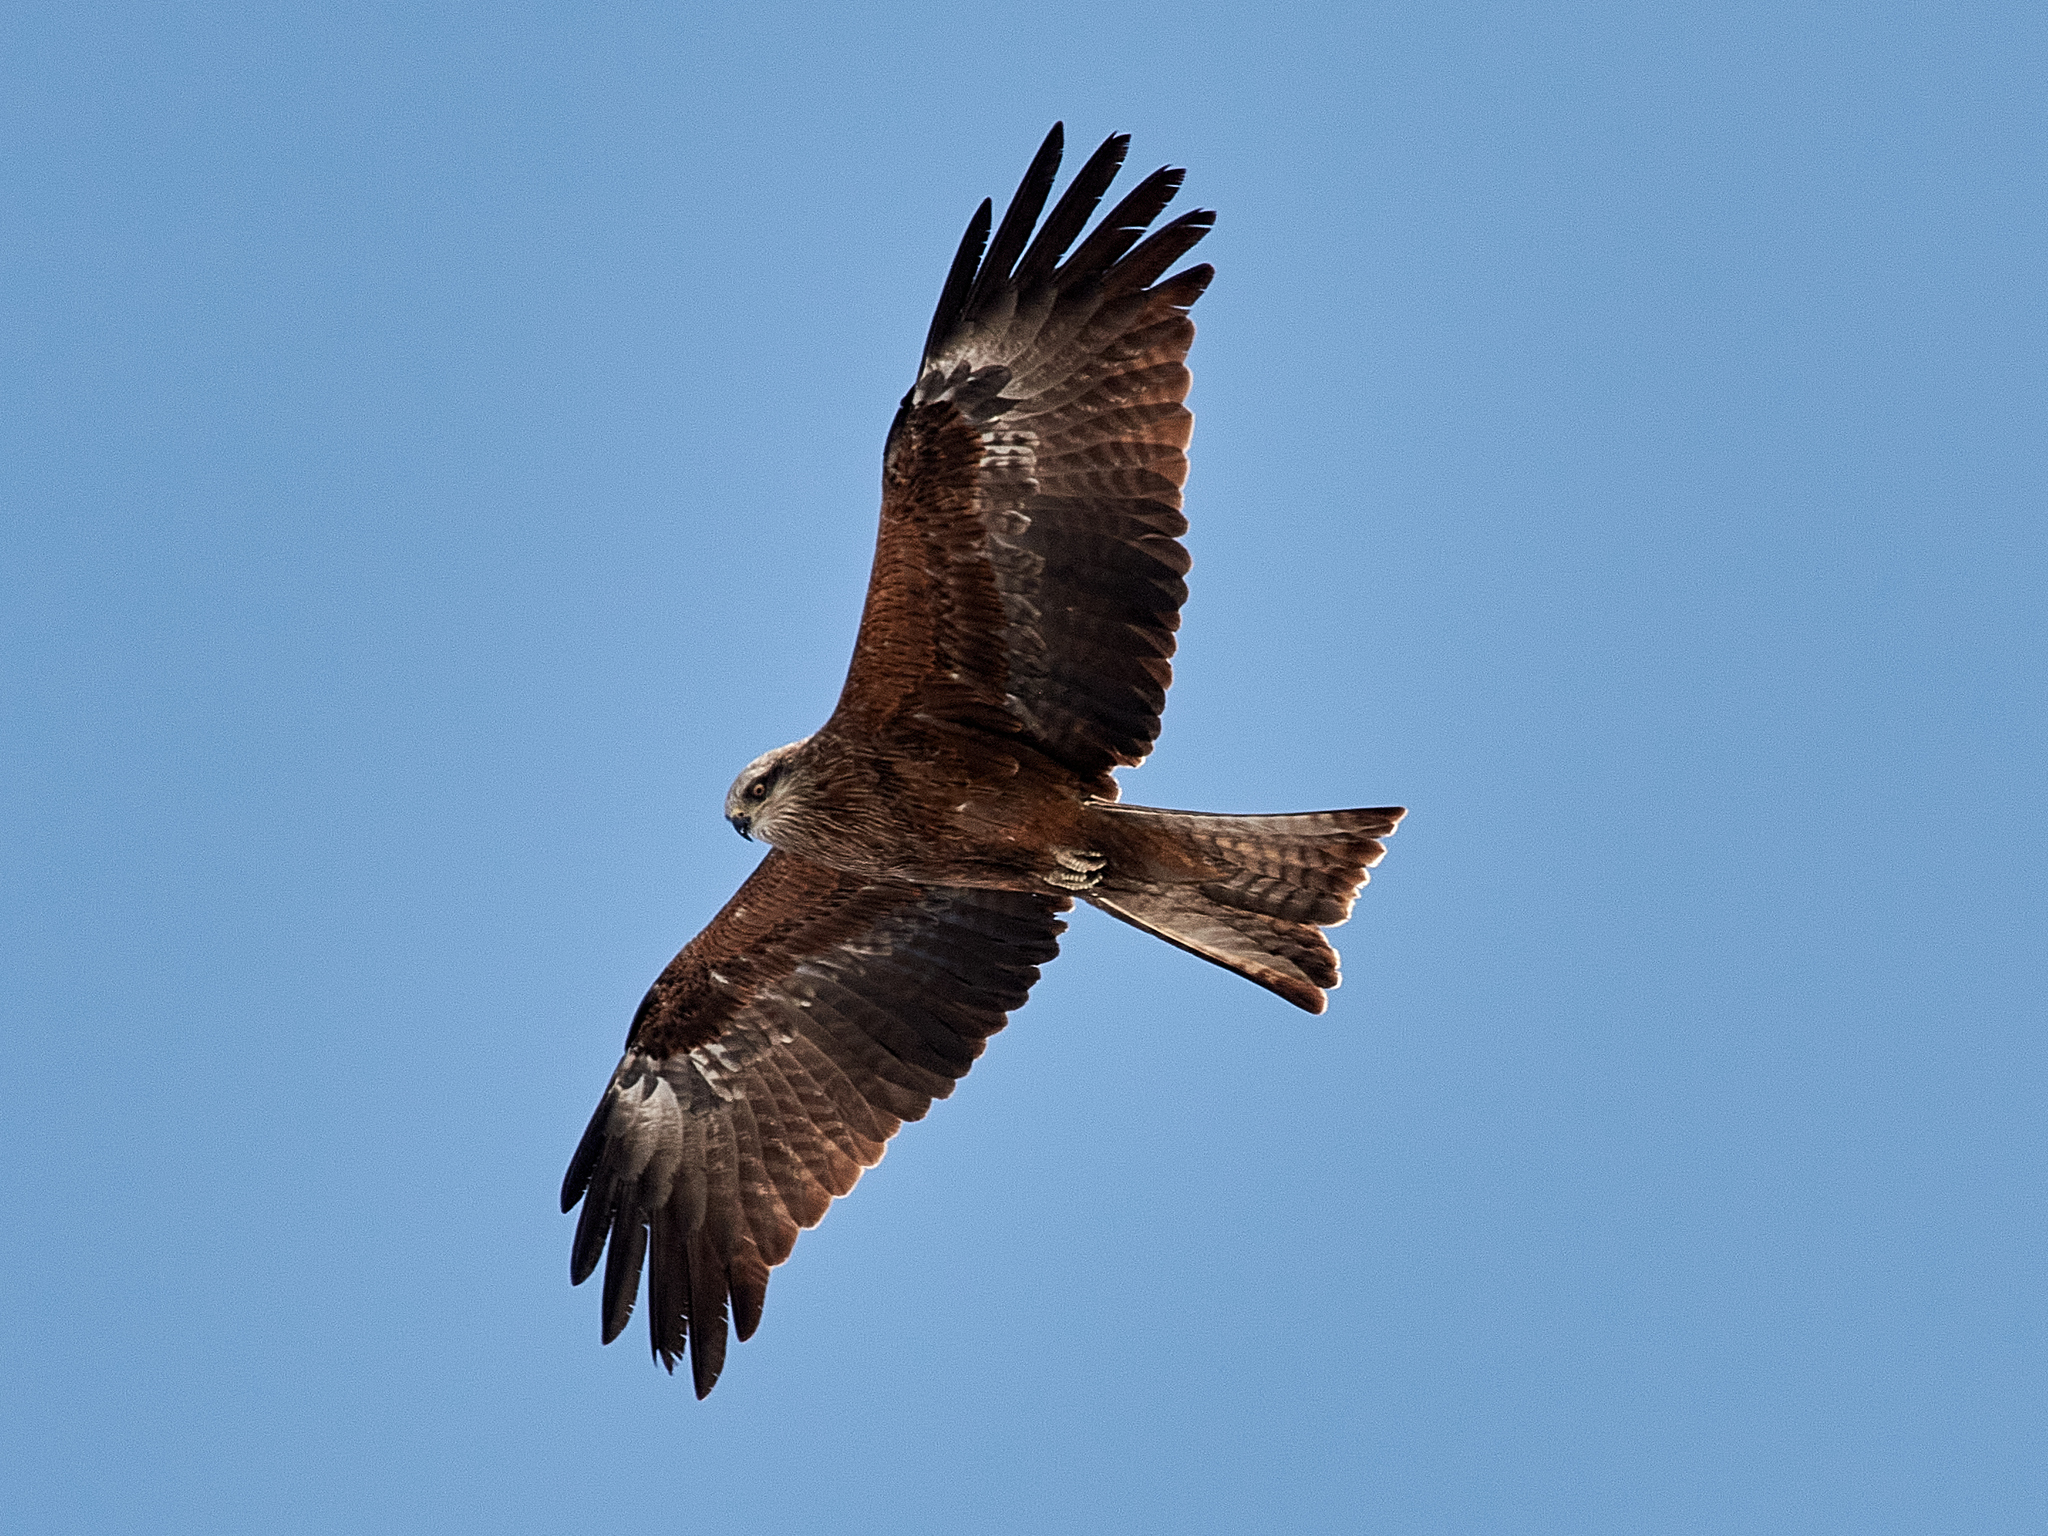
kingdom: Animalia
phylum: Chordata
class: Aves
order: Accipitriformes
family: Accipitridae
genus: Milvus
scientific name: Milvus migrans
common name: Black kite
